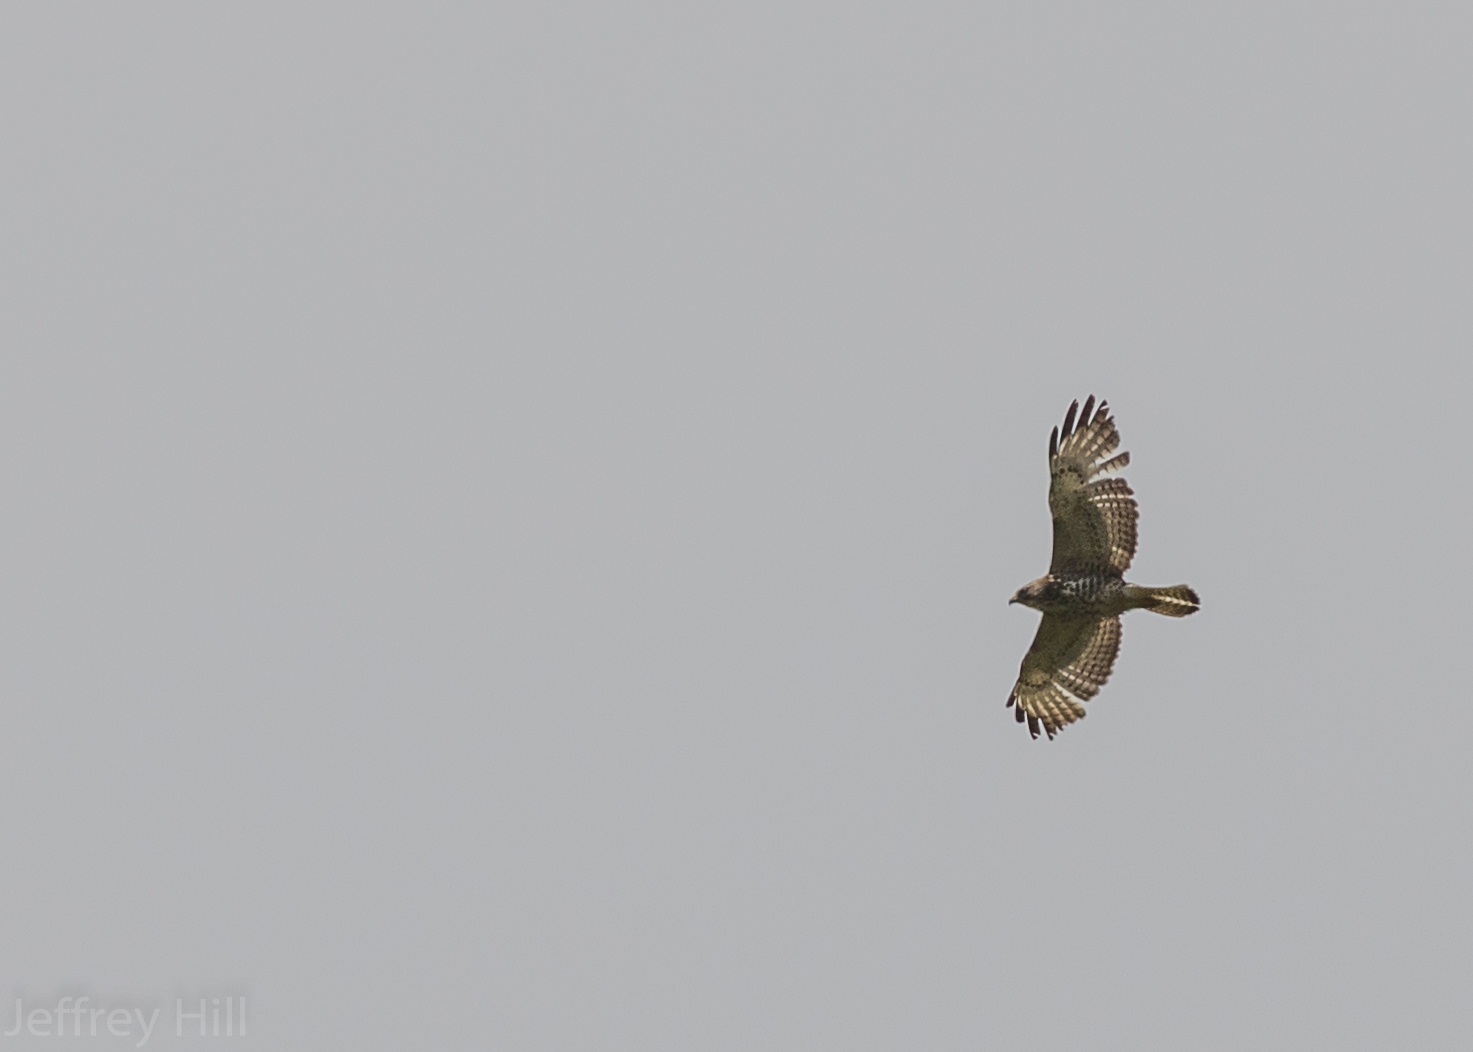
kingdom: Animalia
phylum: Chordata
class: Aves
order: Accipitriformes
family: Accipitridae
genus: Buteo
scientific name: Buteo platypterus
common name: Broad-winged hawk
